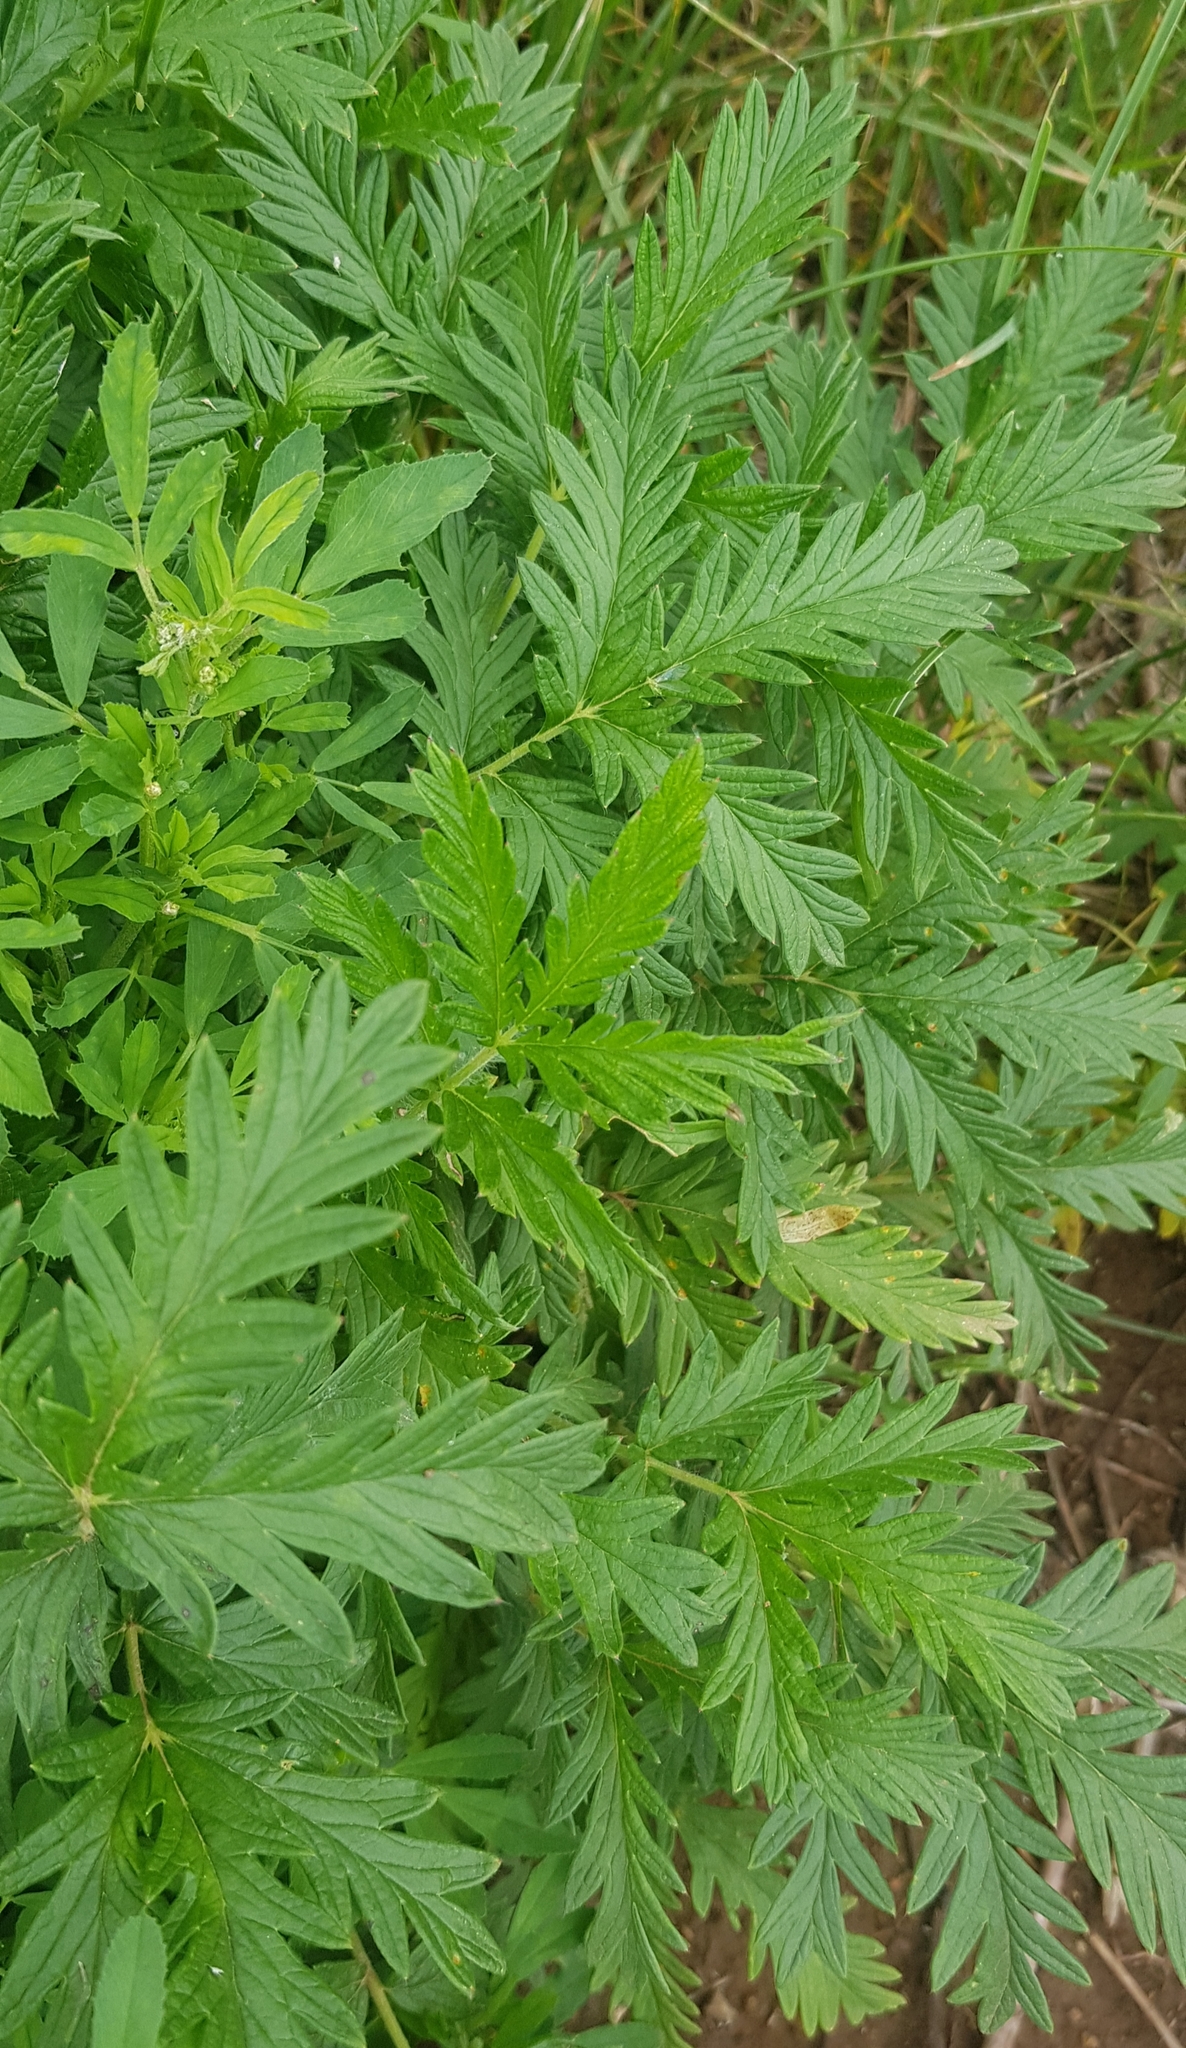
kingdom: Plantae
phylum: Tracheophyta
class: Magnoliopsida
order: Rosales
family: Rosaceae
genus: Potentilla
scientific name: Potentilla tergemina
